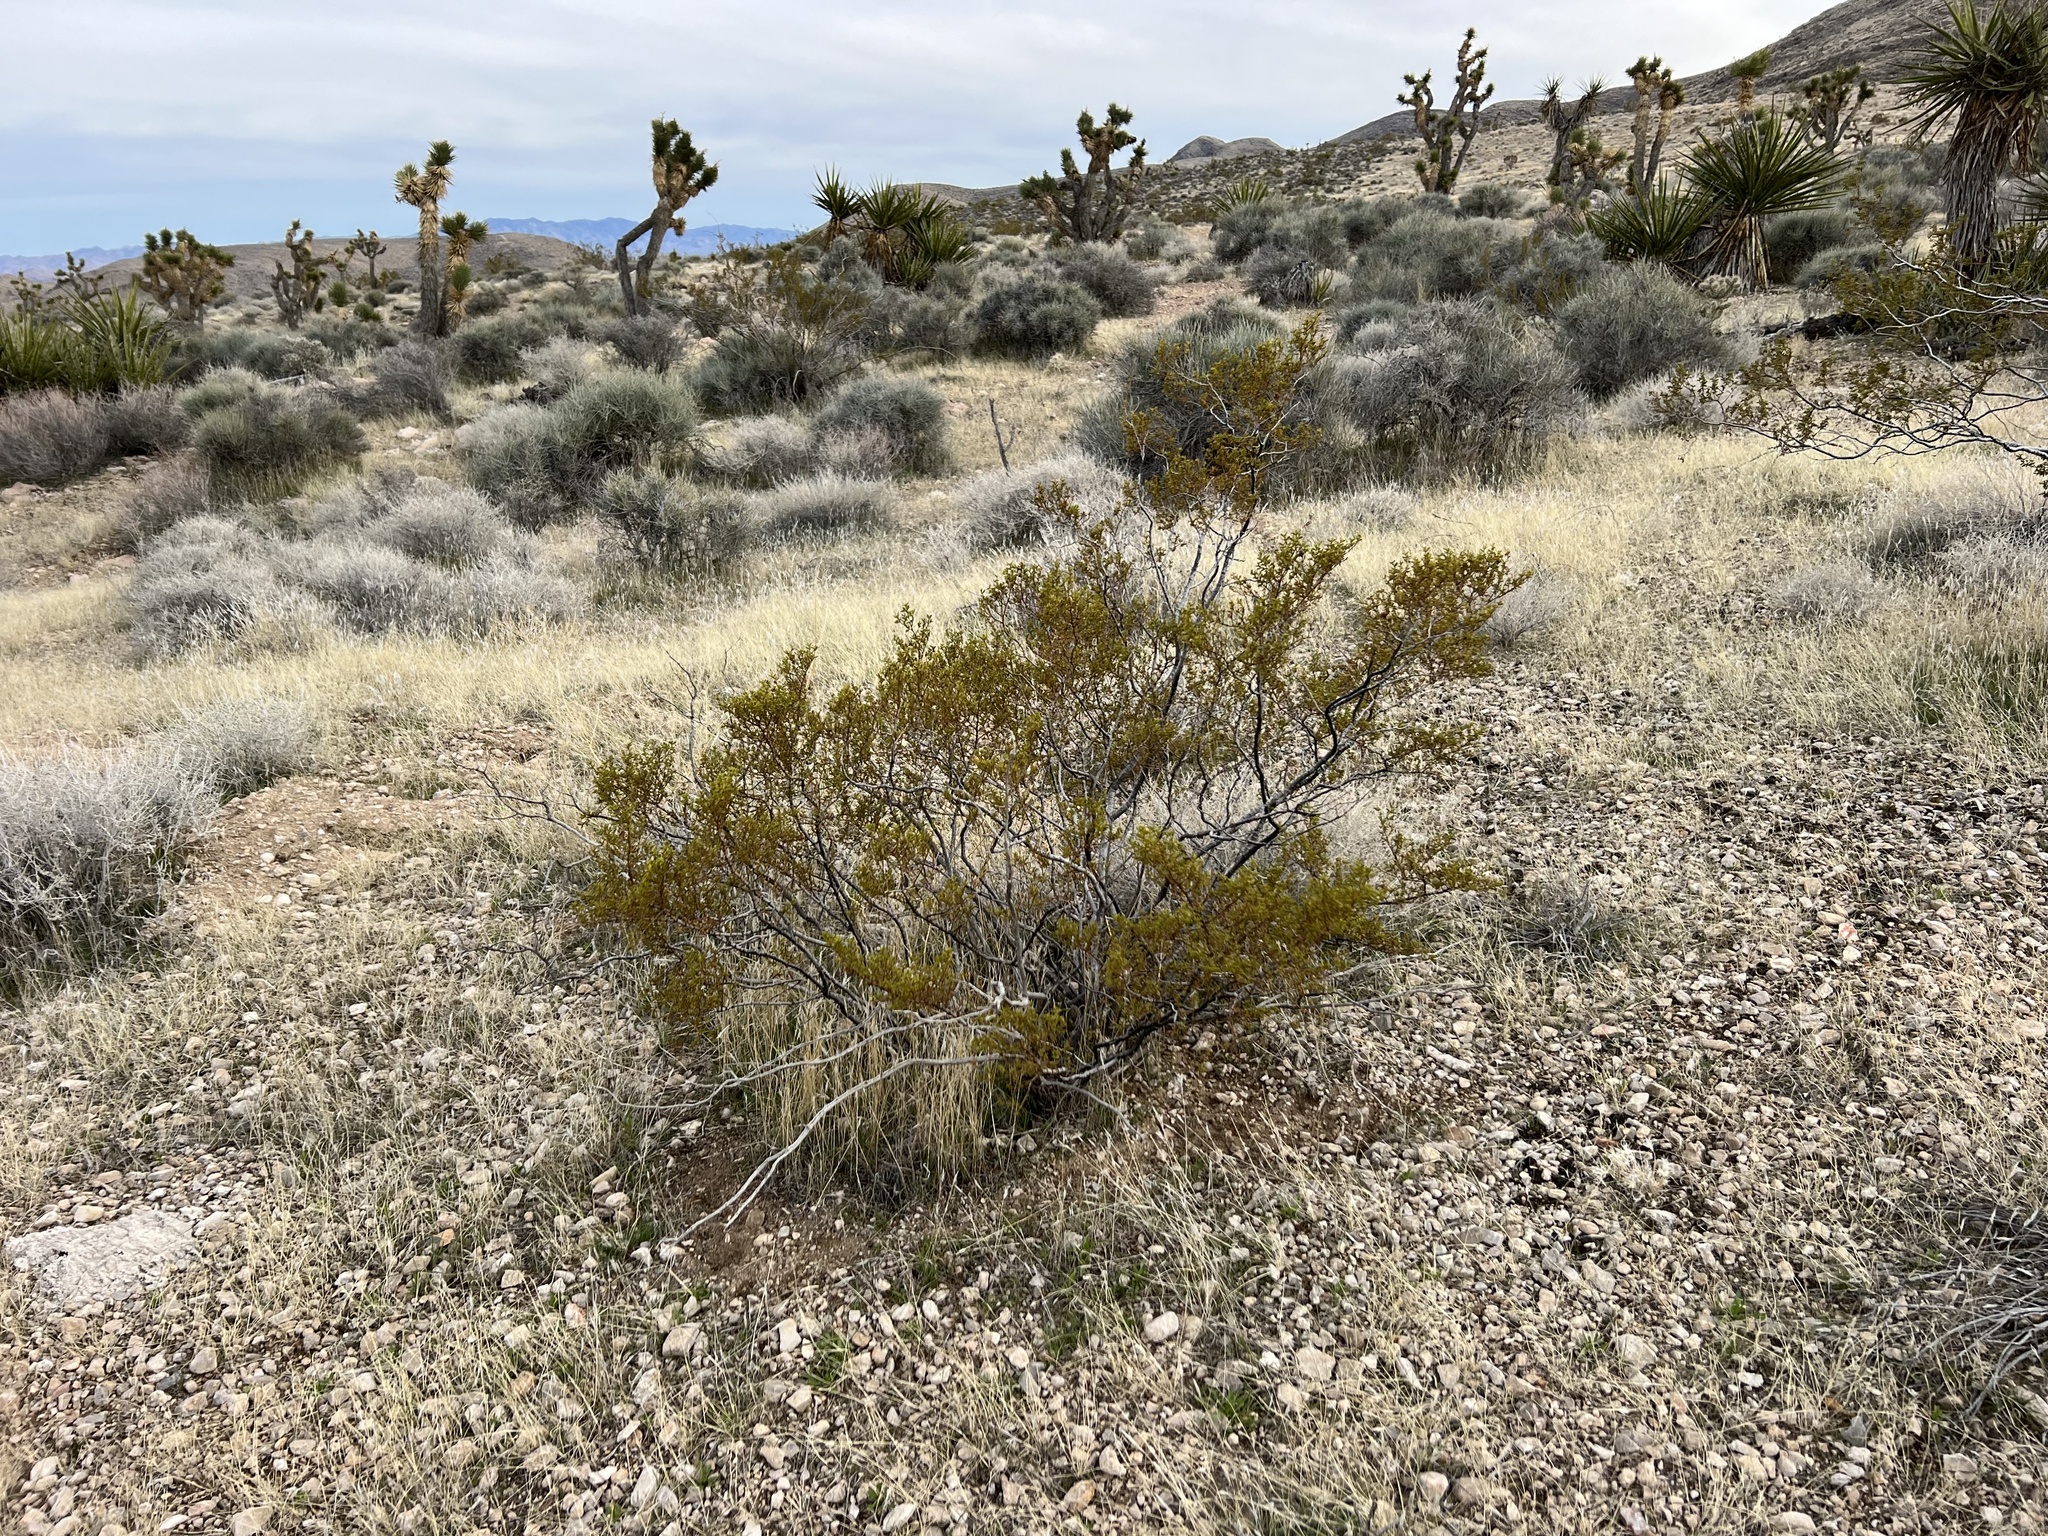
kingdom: Plantae
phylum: Tracheophyta
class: Magnoliopsida
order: Zygophyllales
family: Zygophyllaceae
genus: Larrea
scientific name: Larrea tridentata
